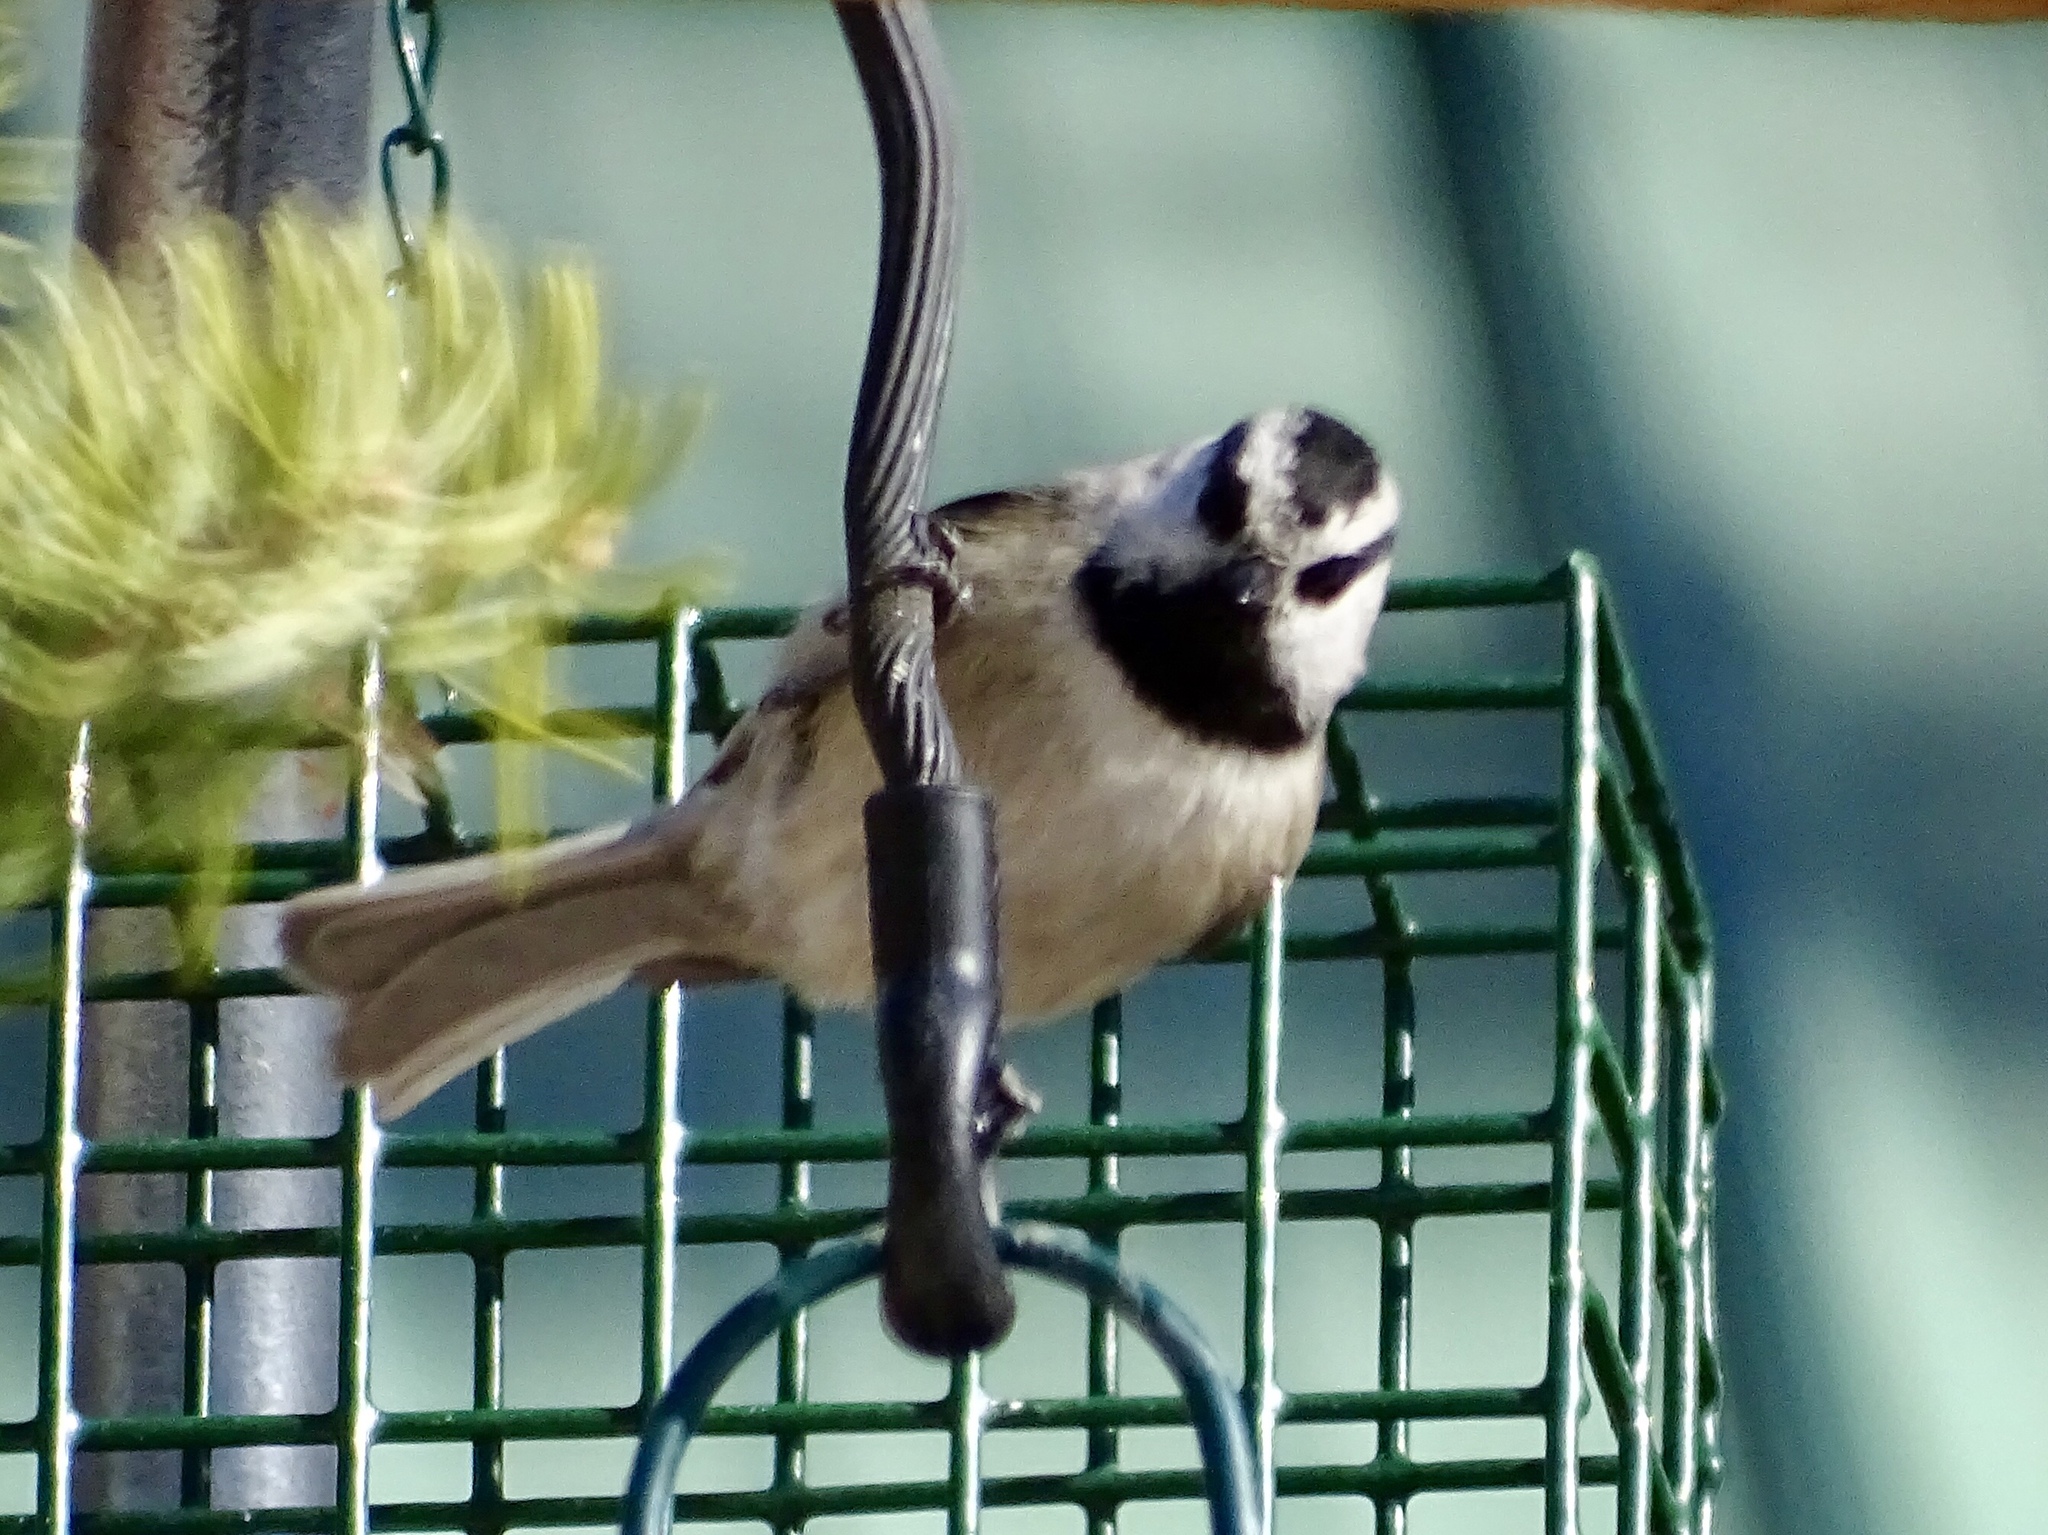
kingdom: Animalia
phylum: Chordata
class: Aves
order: Passeriformes
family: Paridae
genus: Poecile
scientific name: Poecile gambeli
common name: Mountain chickadee
